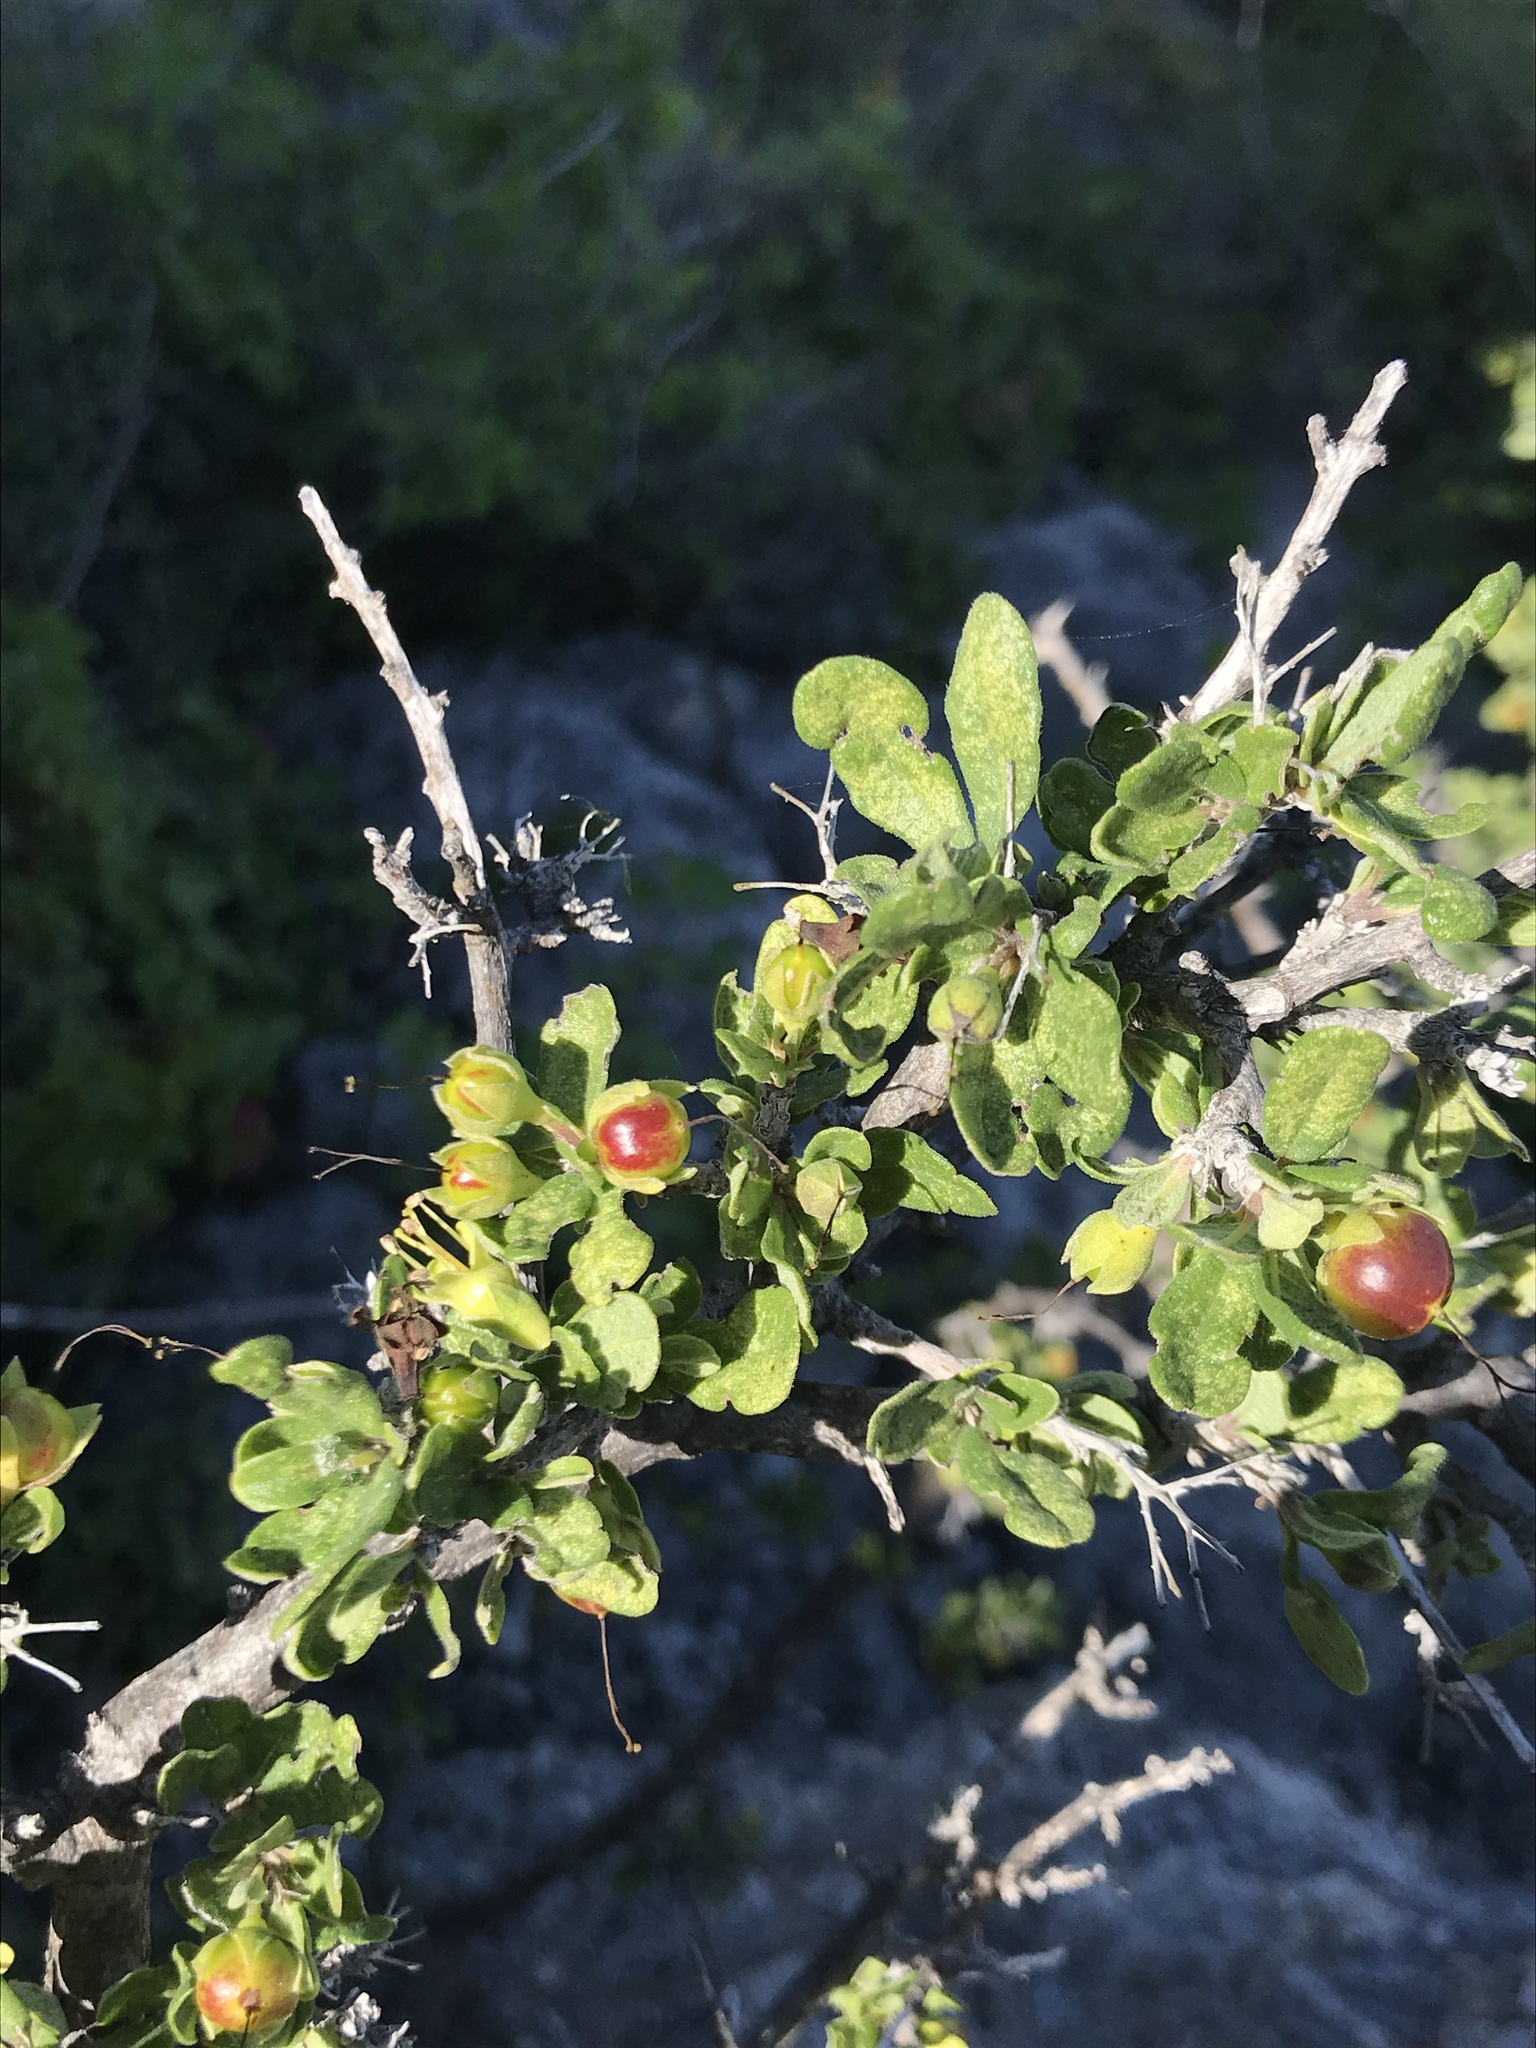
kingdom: Plantae
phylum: Tracheophyta
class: Magnoliopsida
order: Boraginales
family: Ehretiaceae
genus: Bourreria
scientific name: Bourreria sonorae
